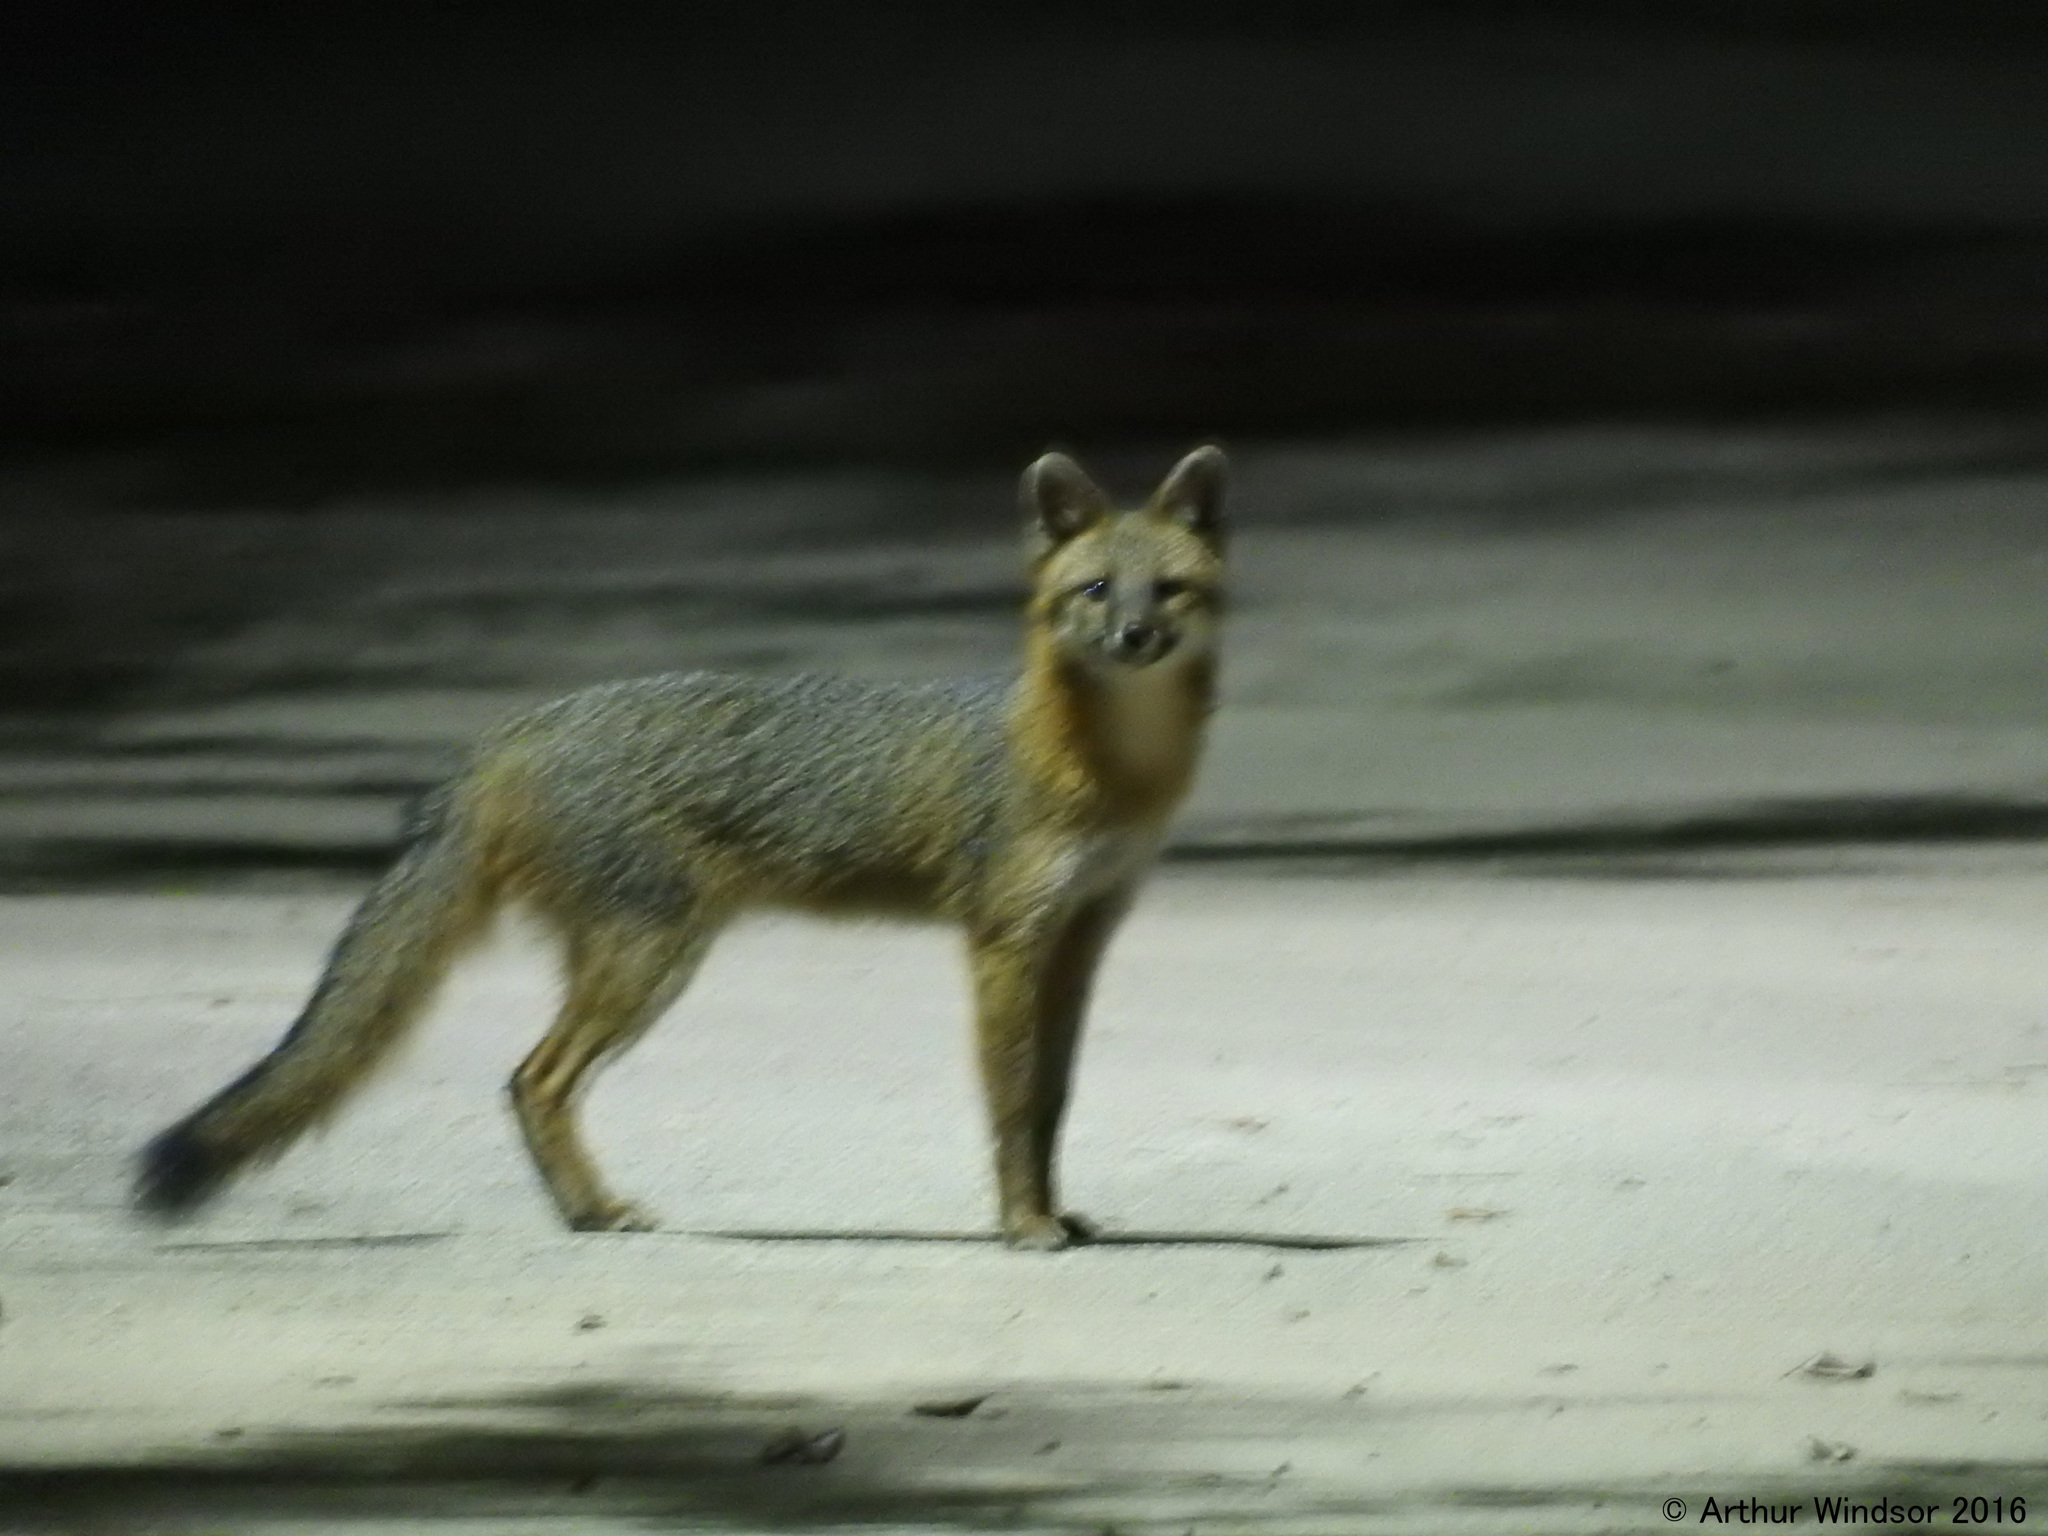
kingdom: Animalia
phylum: Chordata
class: Mammalia
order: Carnivora
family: Canidae
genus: Urocyon
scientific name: Urocyon cinereoargenteus
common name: Gray fox
